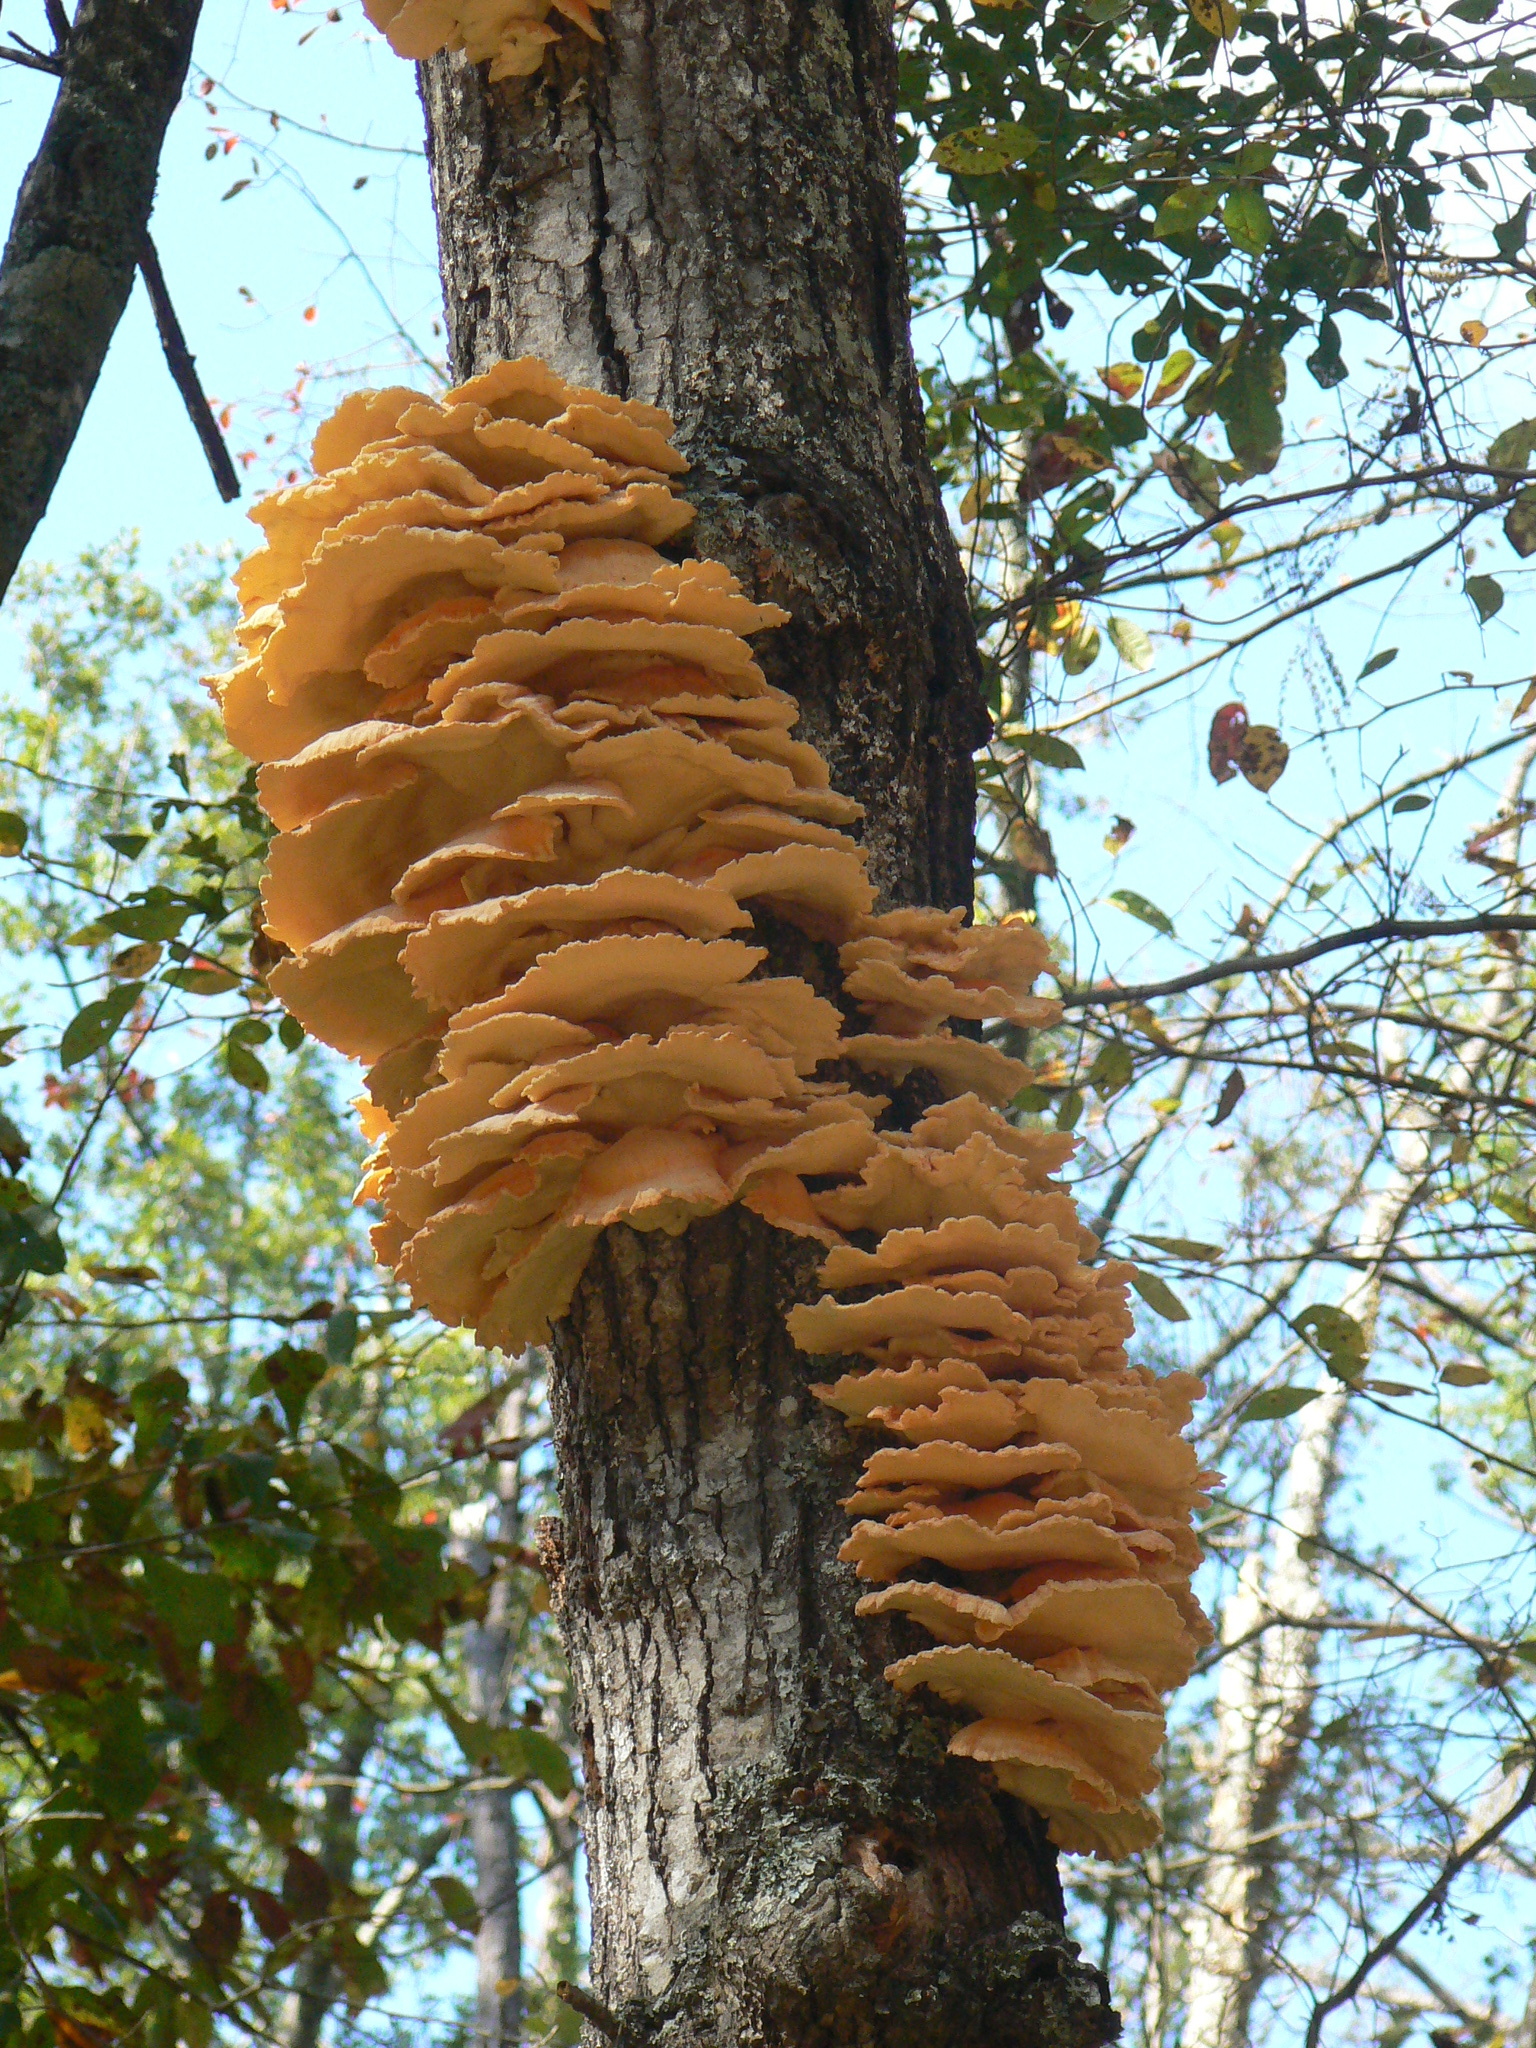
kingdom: Fungi
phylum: Basidiomycota
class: Agaricomycetes
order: Polyporales
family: Laetiporaceae
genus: Laetiporus
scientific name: Laetiporus sulphureus
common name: Chicken of the woods
